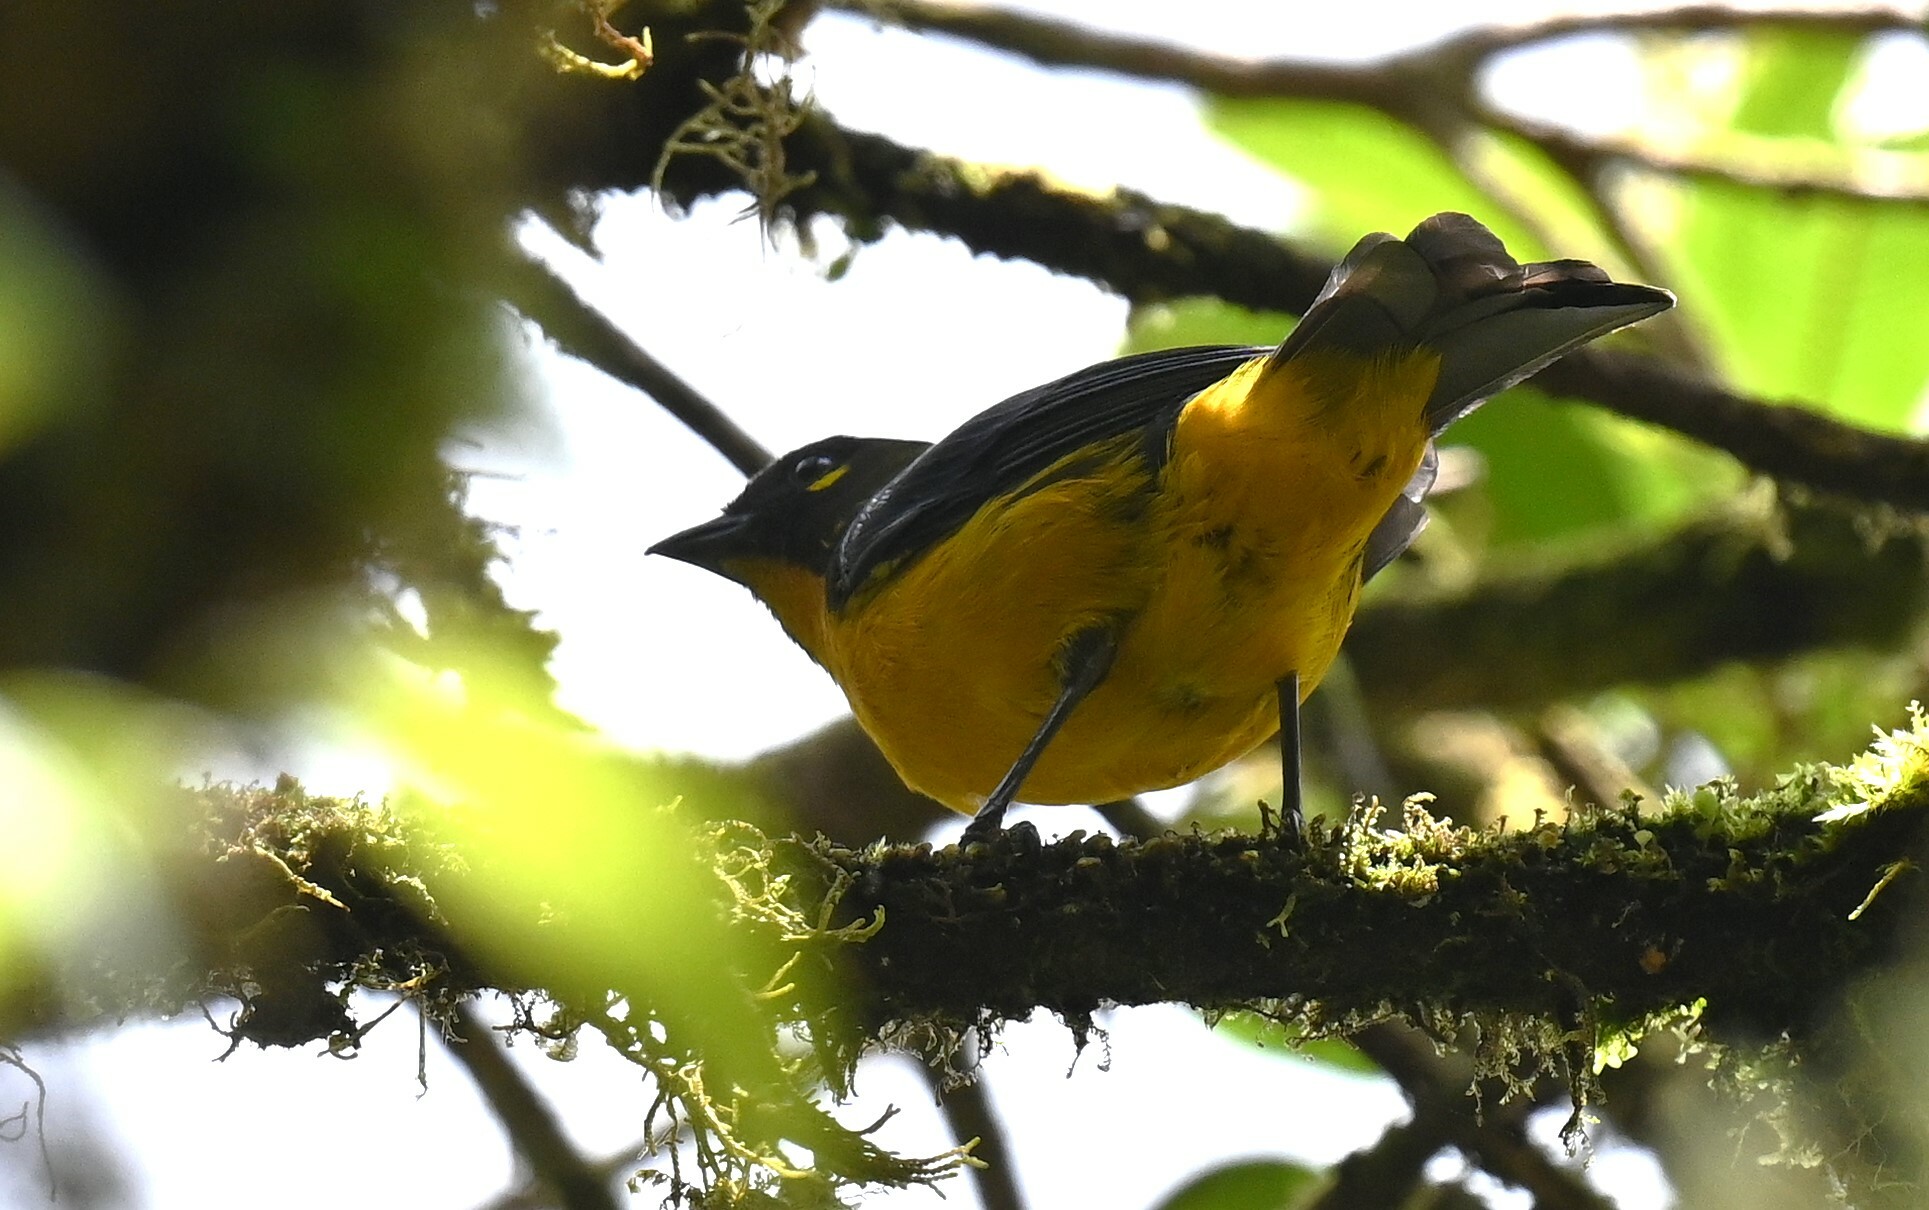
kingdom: Animalia
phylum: Chordata
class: Aves
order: Passeriformes
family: Thraupidae
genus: Anisognathus
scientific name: Anisognathus lacrymosus
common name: Lacrimose mountain-tanager
